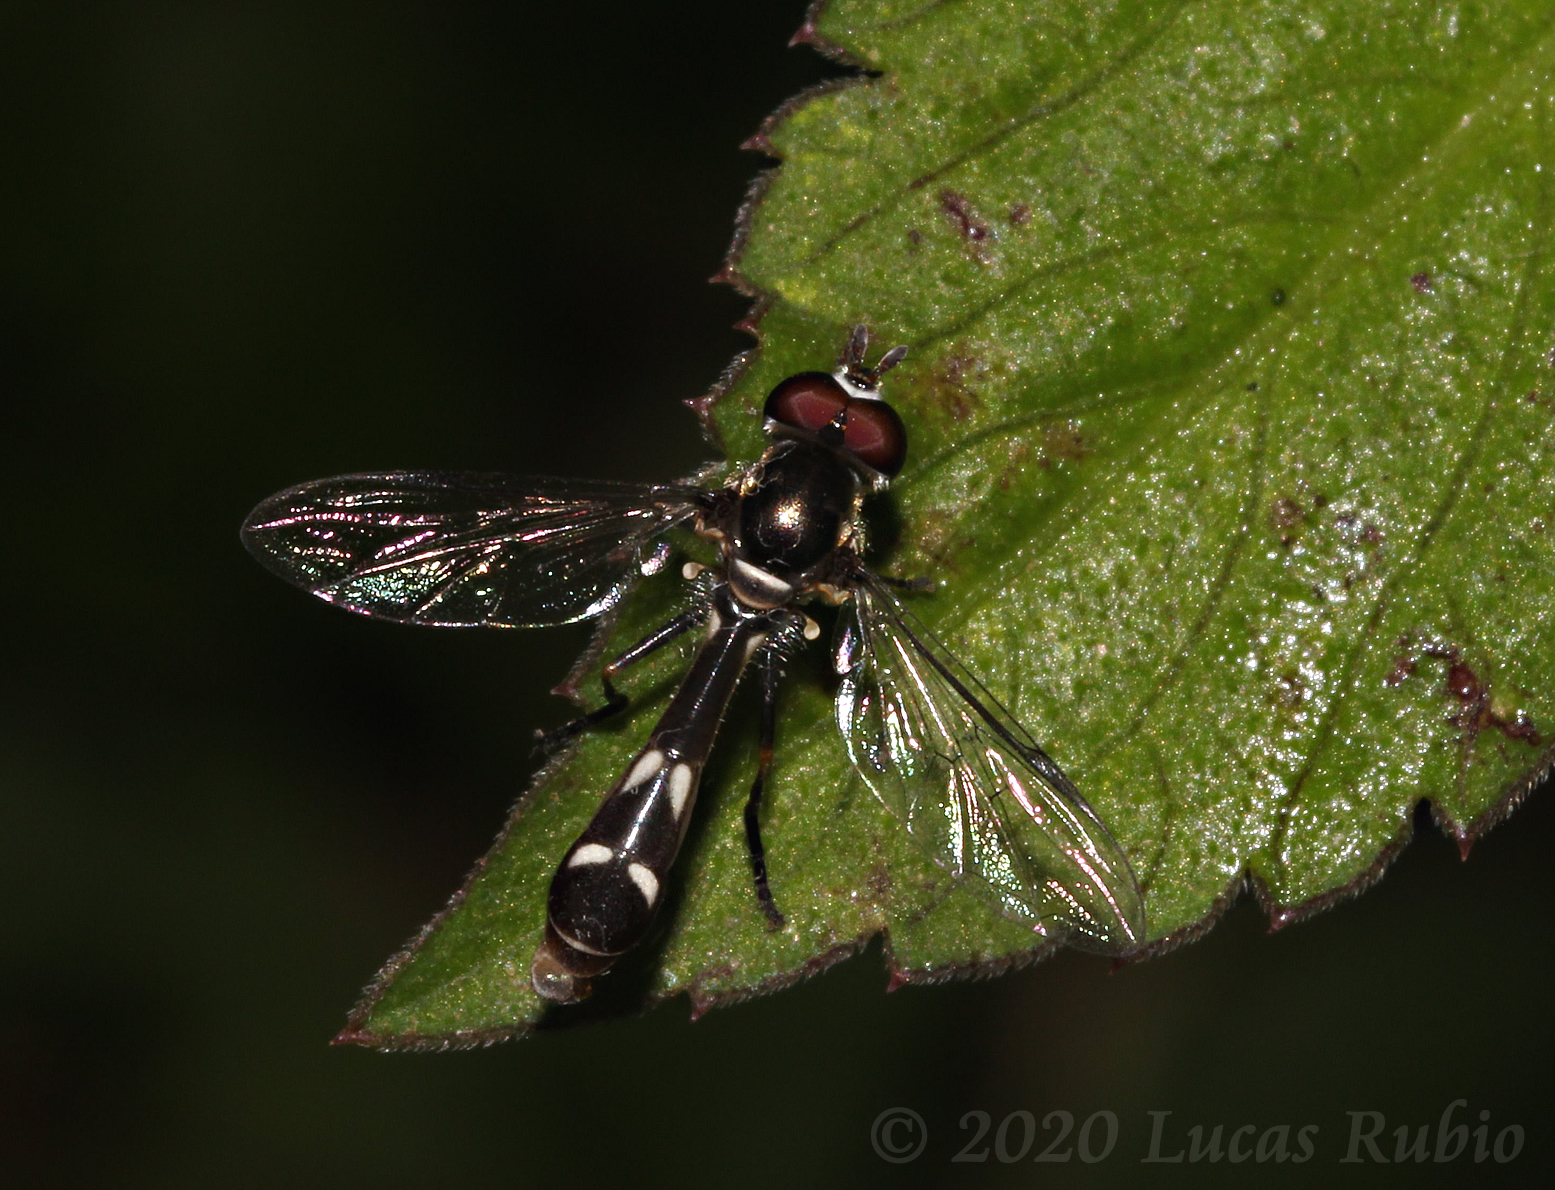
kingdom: Animalia
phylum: Arthropoda
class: Insecta
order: Diptera
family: Syrphidae
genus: Dioprosopa
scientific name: Dioprosopa clavatus
